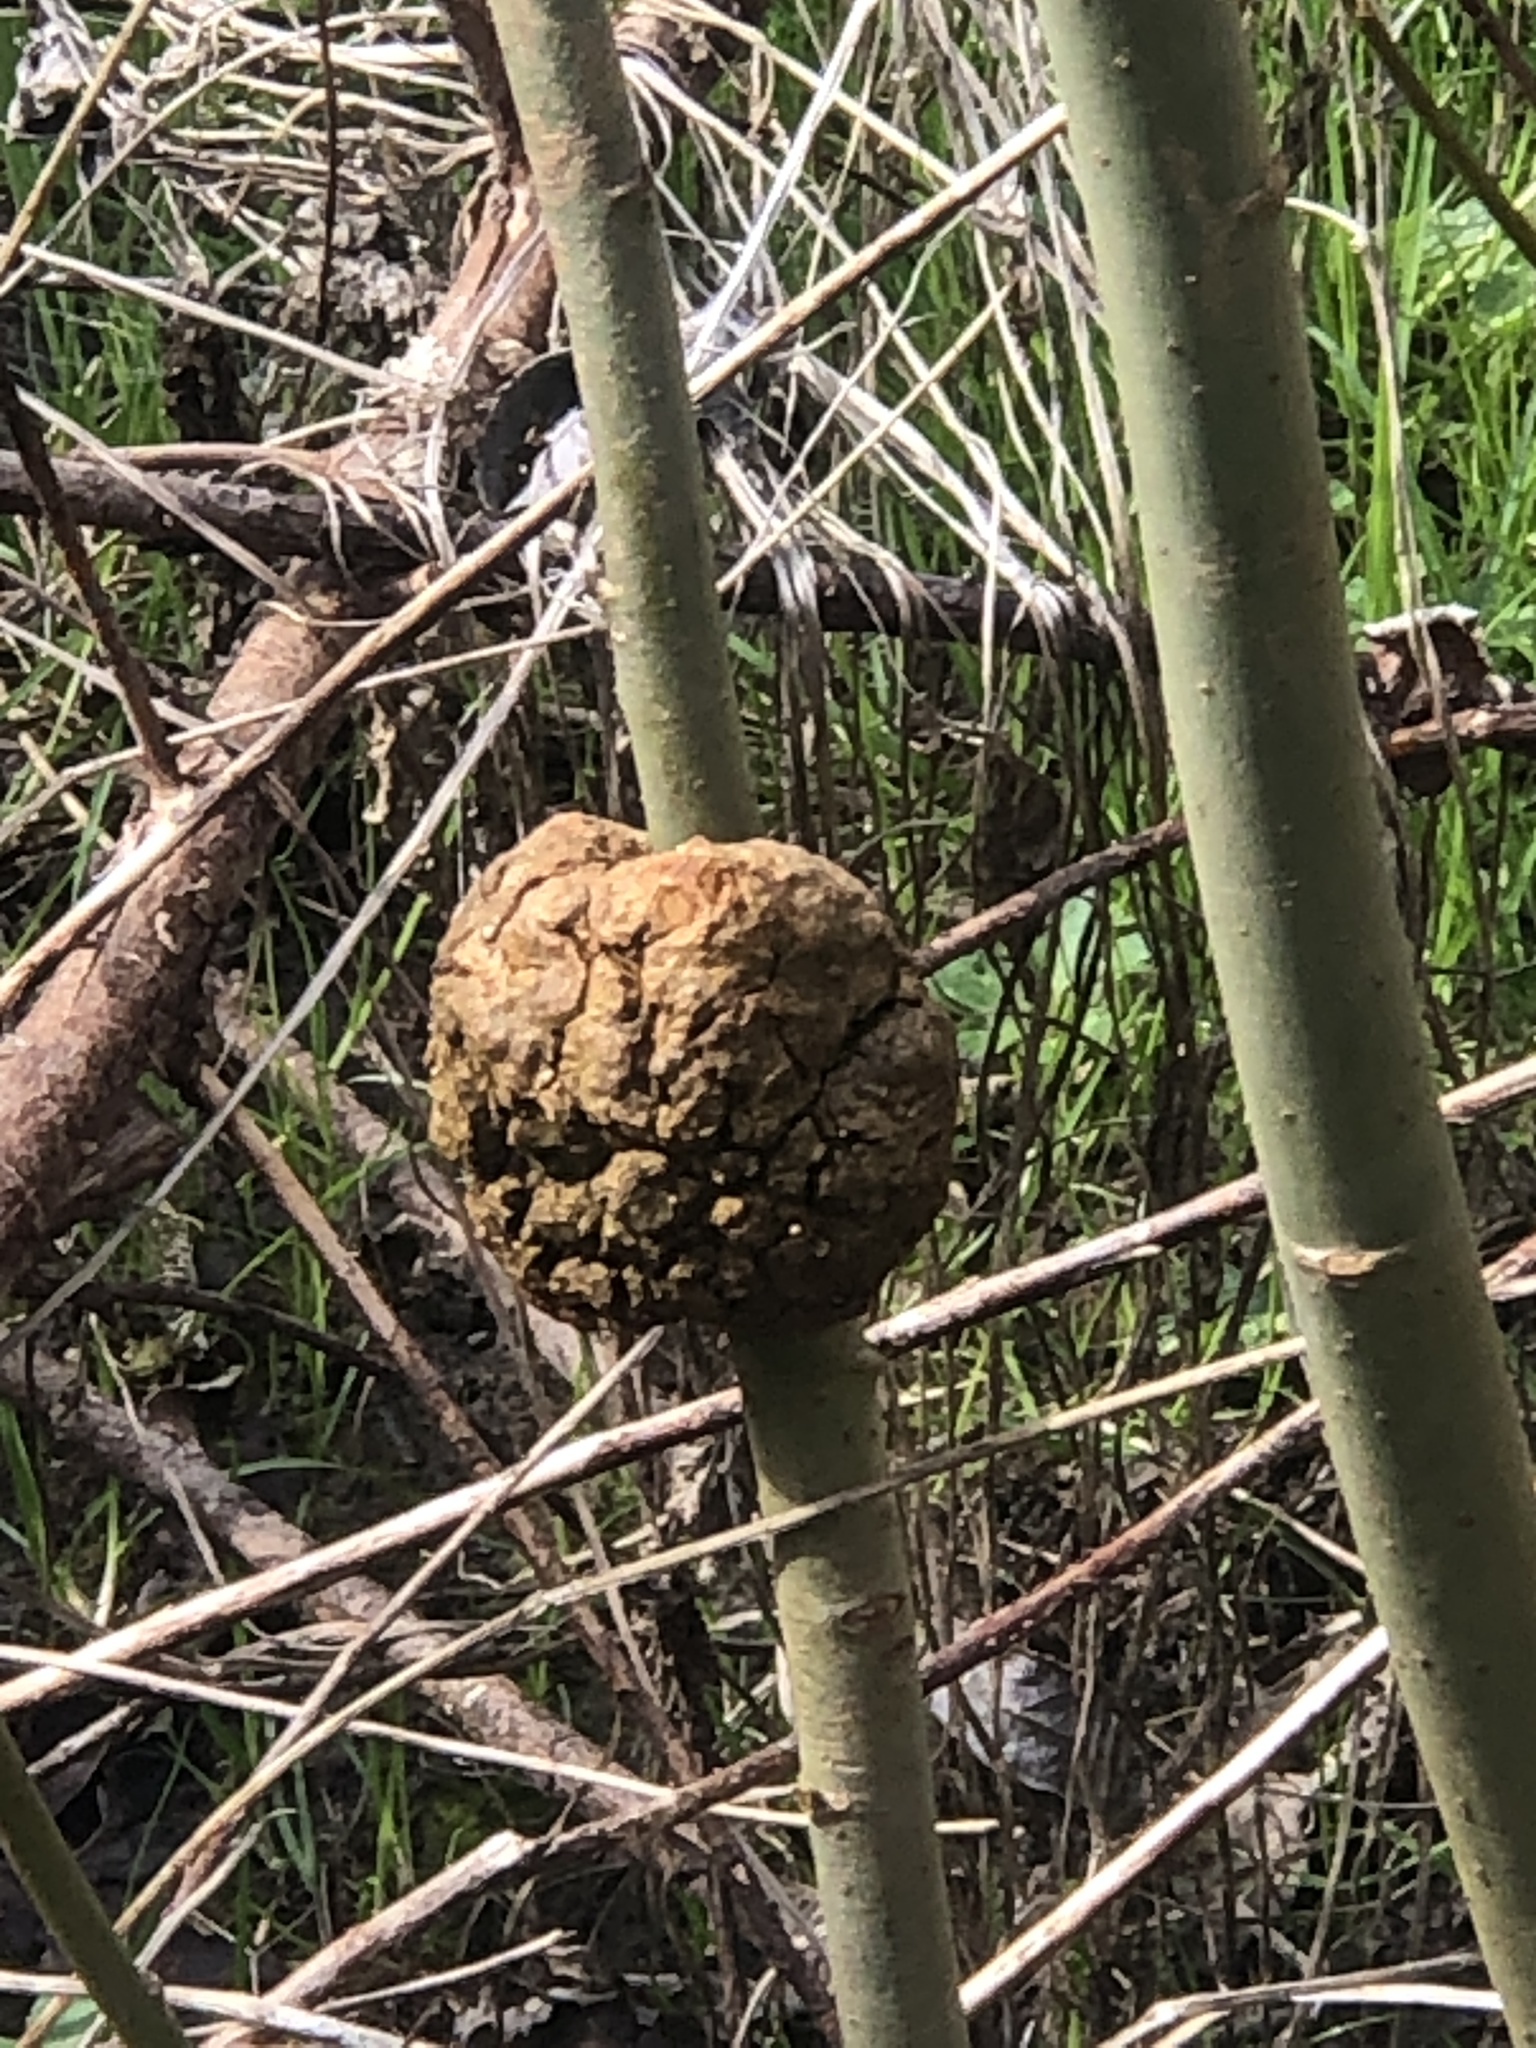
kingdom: Bacteria
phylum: Proteobacteria
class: Alphaproteobacteria
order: Rhizobiales
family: Rhizobiaceae
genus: Rhizobium
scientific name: Rhizobium Agrobacterium radiobacter
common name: Bacterial crown gall
